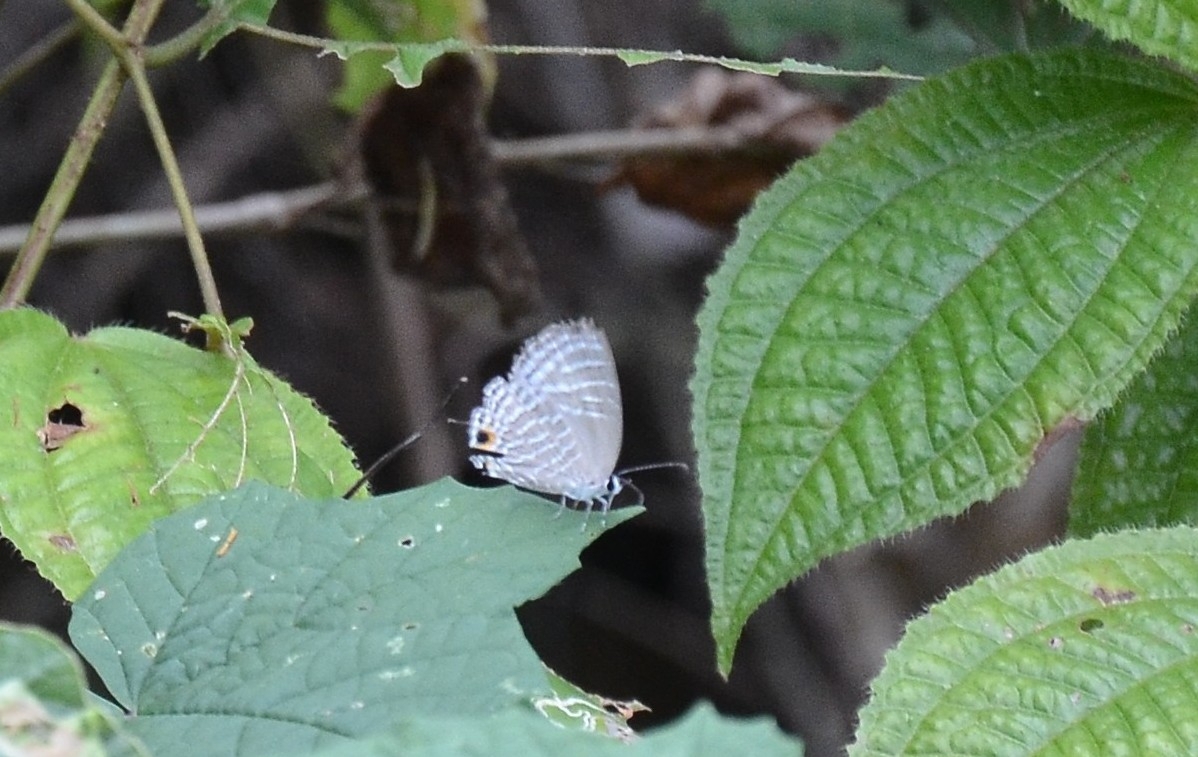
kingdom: Animalia
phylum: Arthropoda
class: Insecta
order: Lepidoptera
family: Lycaenidae
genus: Jamides
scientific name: Jamides celeno
